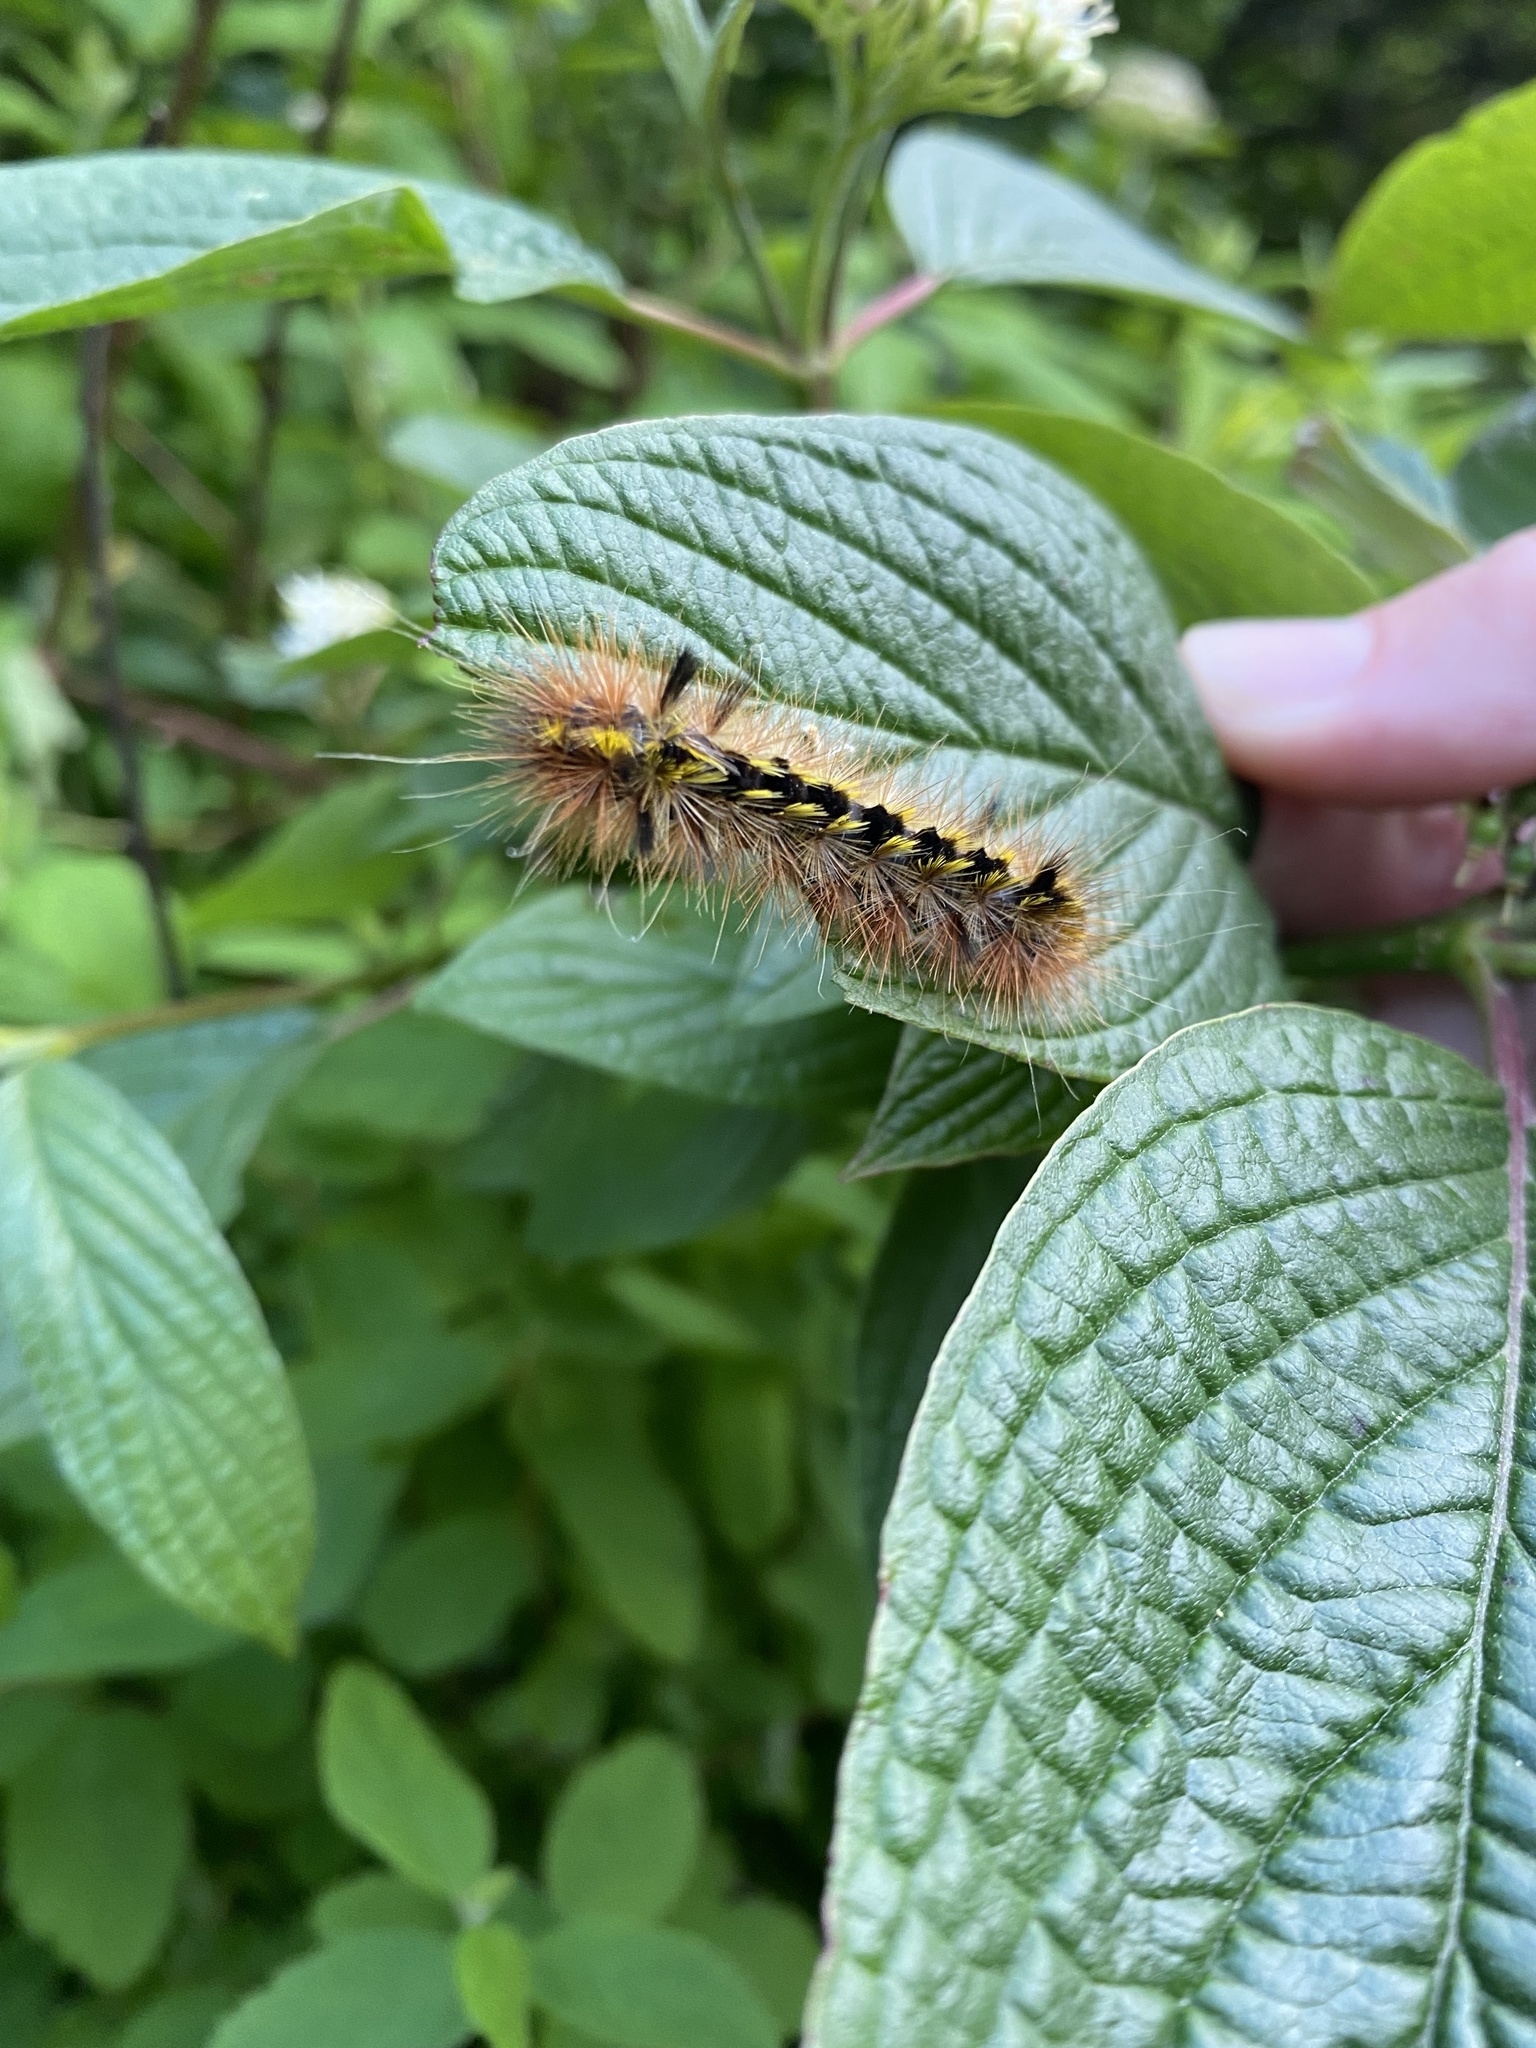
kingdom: Animalia
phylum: Arthropoda
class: Insecta
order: Lepidoptera
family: Erebidae
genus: Lophocampa
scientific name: Lophocampa argentata
